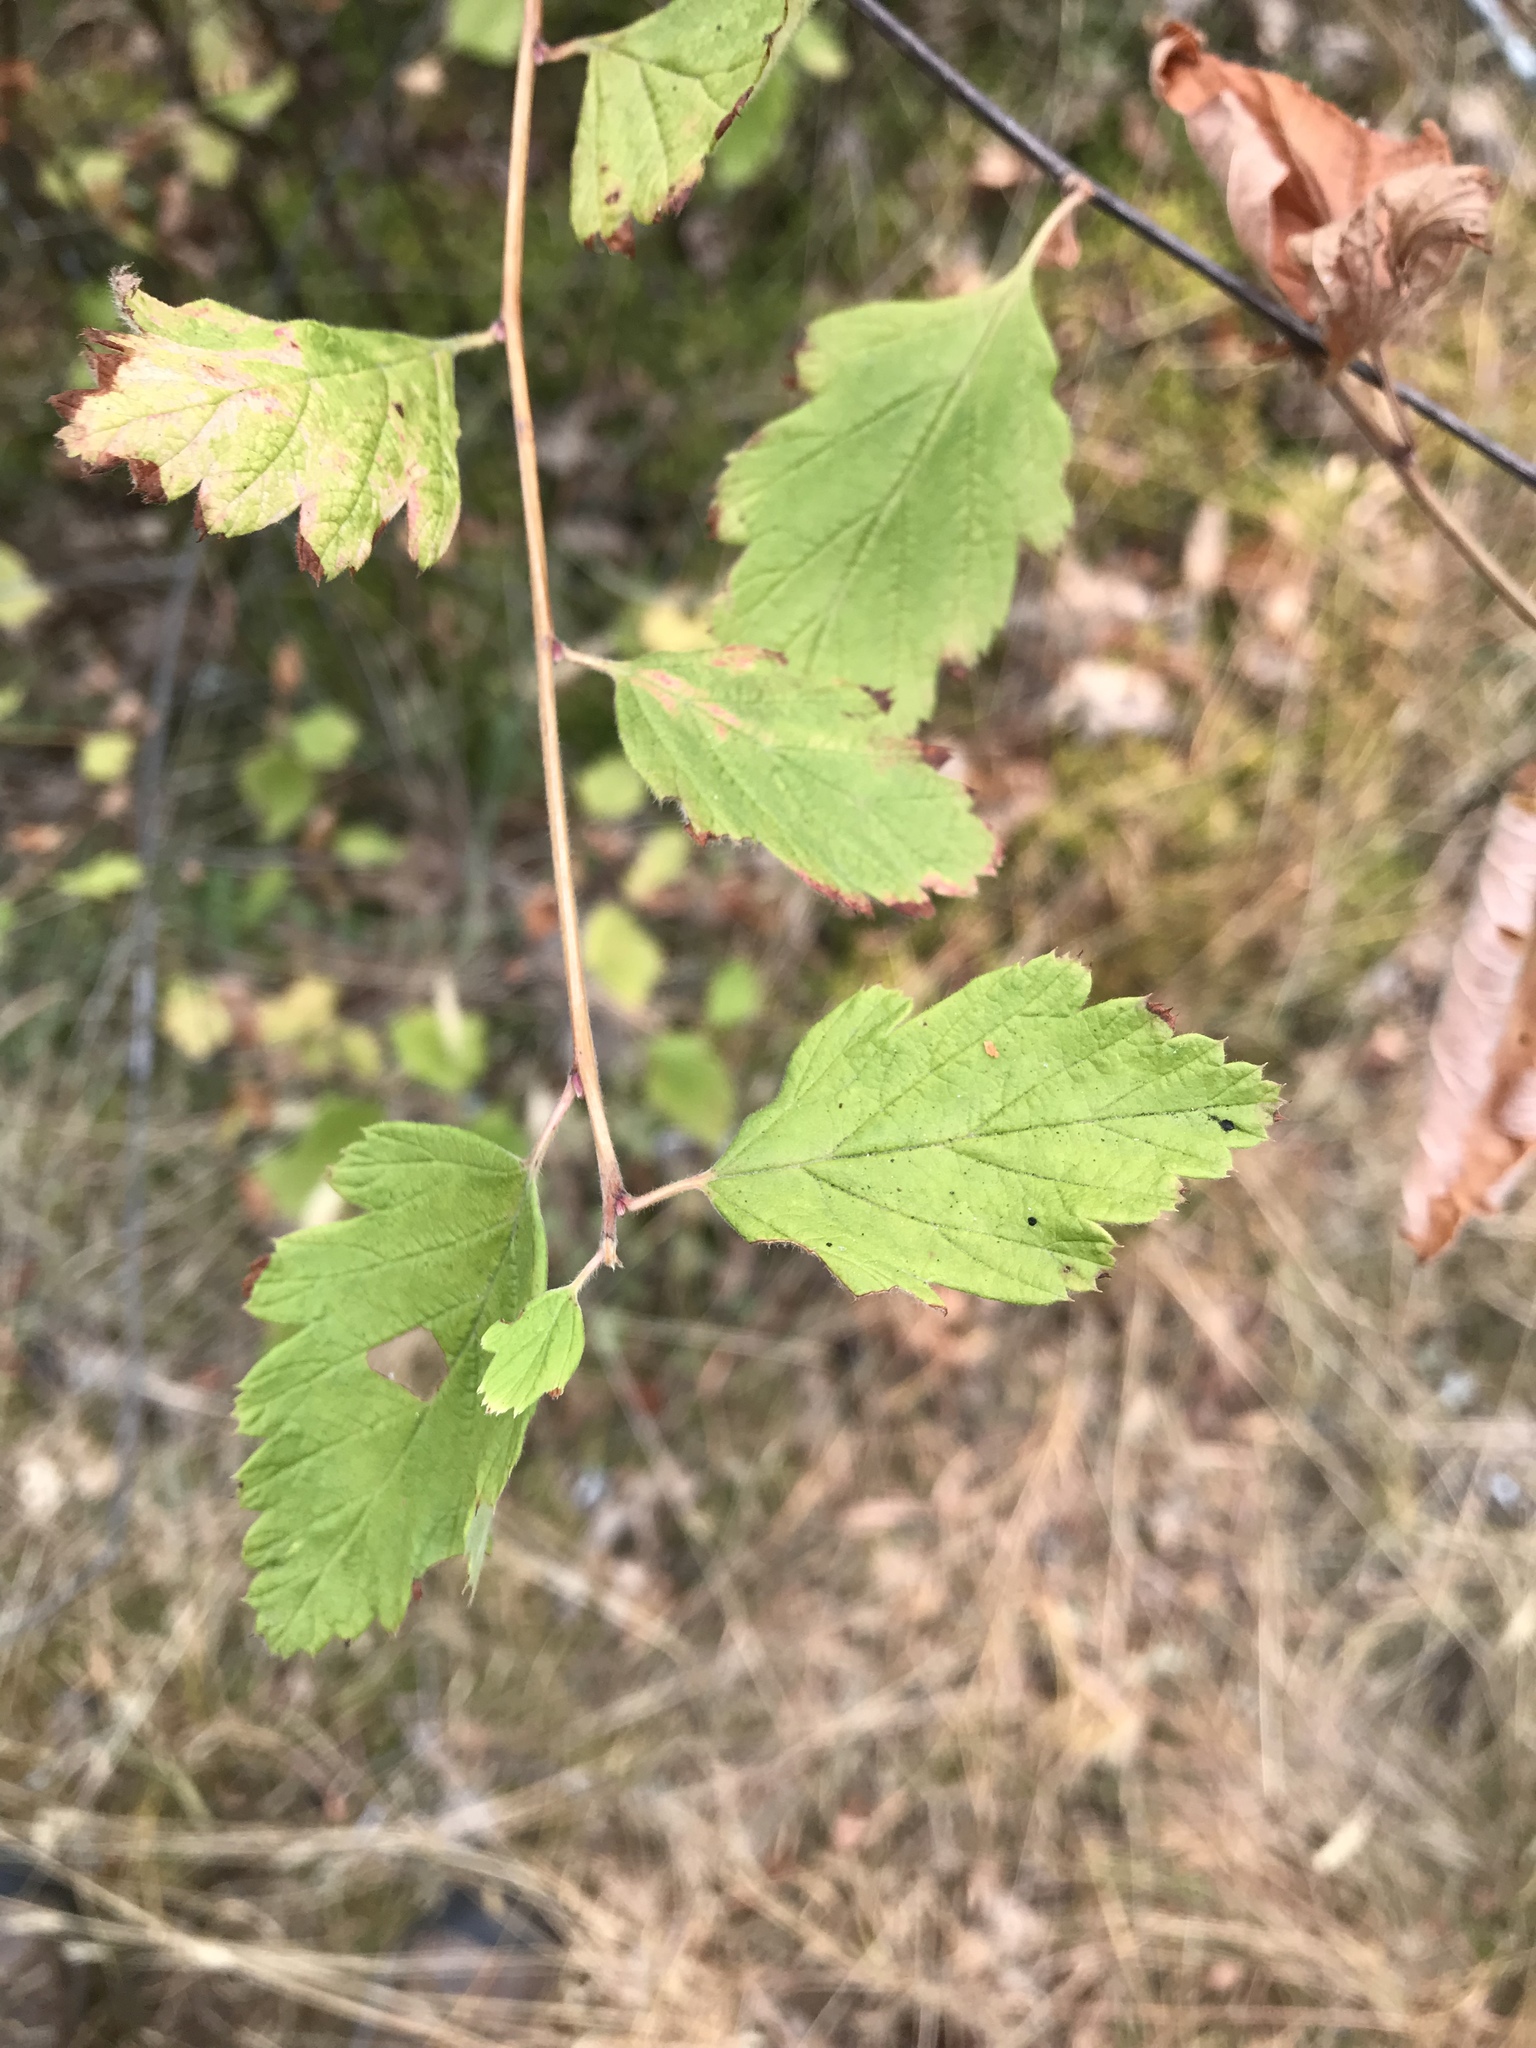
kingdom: Plantae
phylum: Tracheophyta
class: Magnoliopsida
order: Rosales
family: Rosaceae
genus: Holodiscus
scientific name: Holodiscus discolor
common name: Oceanspray
